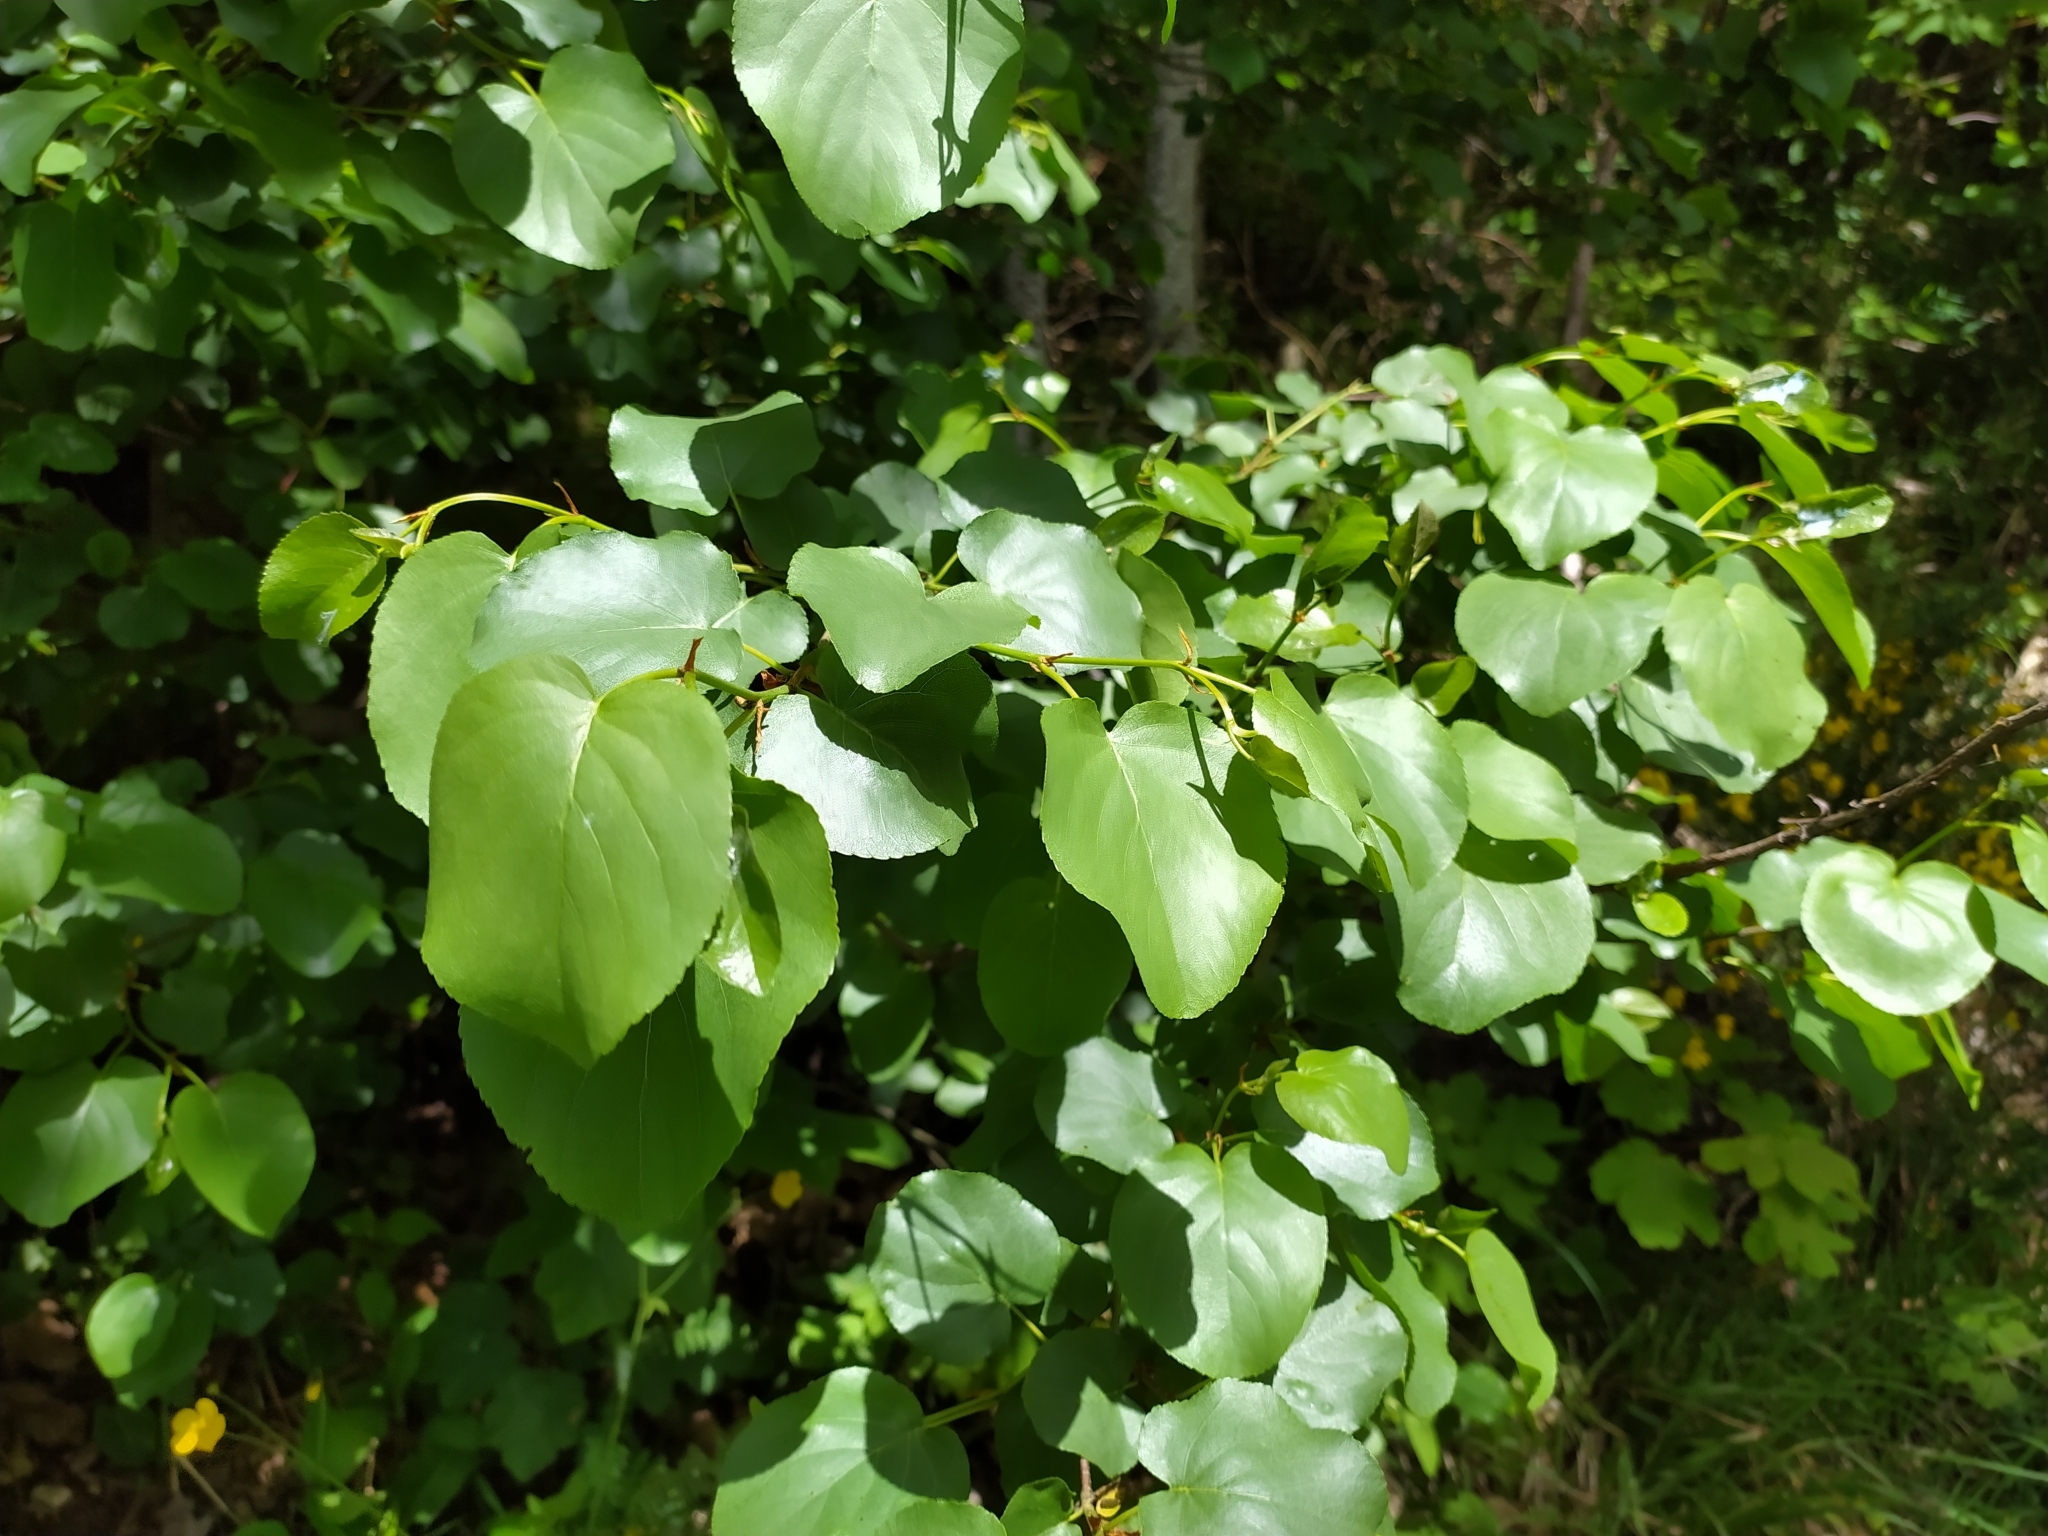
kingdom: Plantae
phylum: Tracheophyta
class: Magnoliopsida
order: Fagales
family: Betulaceae
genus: Alnus
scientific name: Alnus cordata
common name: Italian alder
